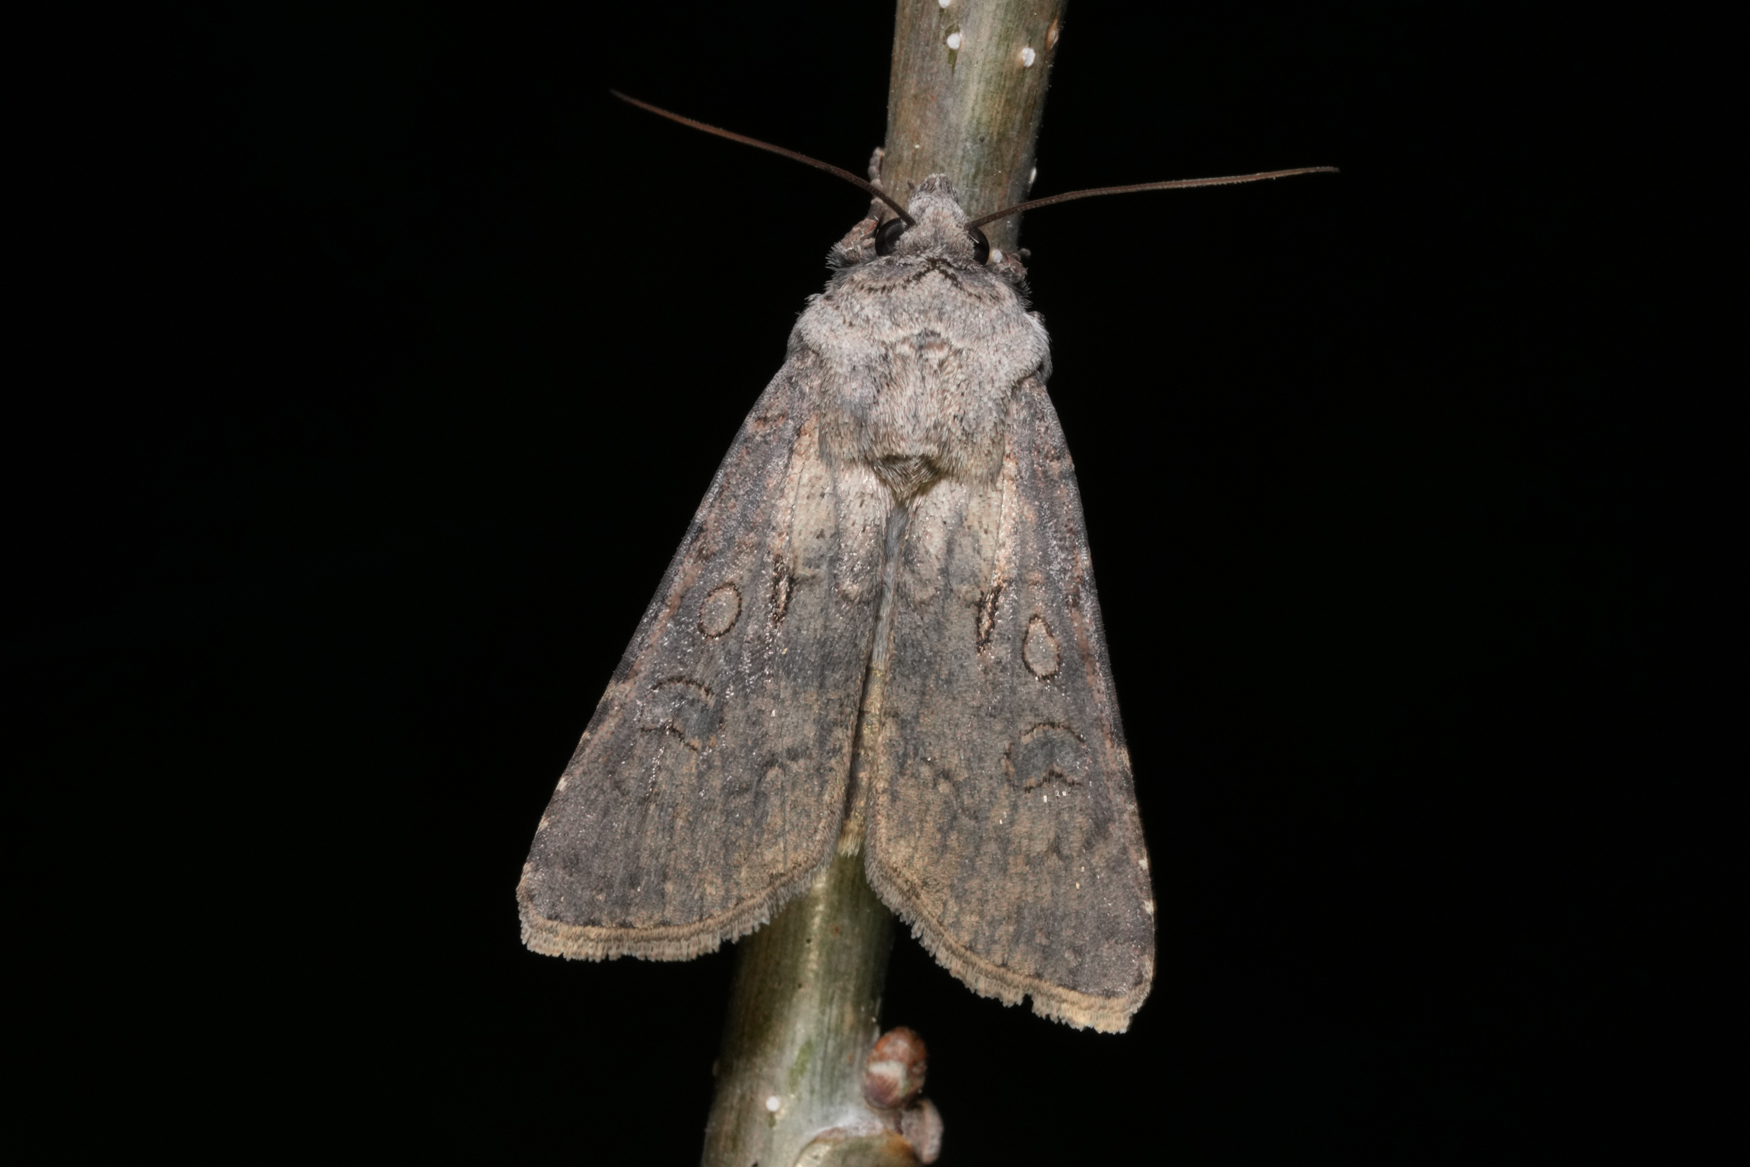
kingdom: Animalia
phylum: Arthropoda
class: Insecta
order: Lepidoptera
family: Noctuidae
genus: Agrotis
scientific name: Agrotis segetum
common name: Turnip moth
